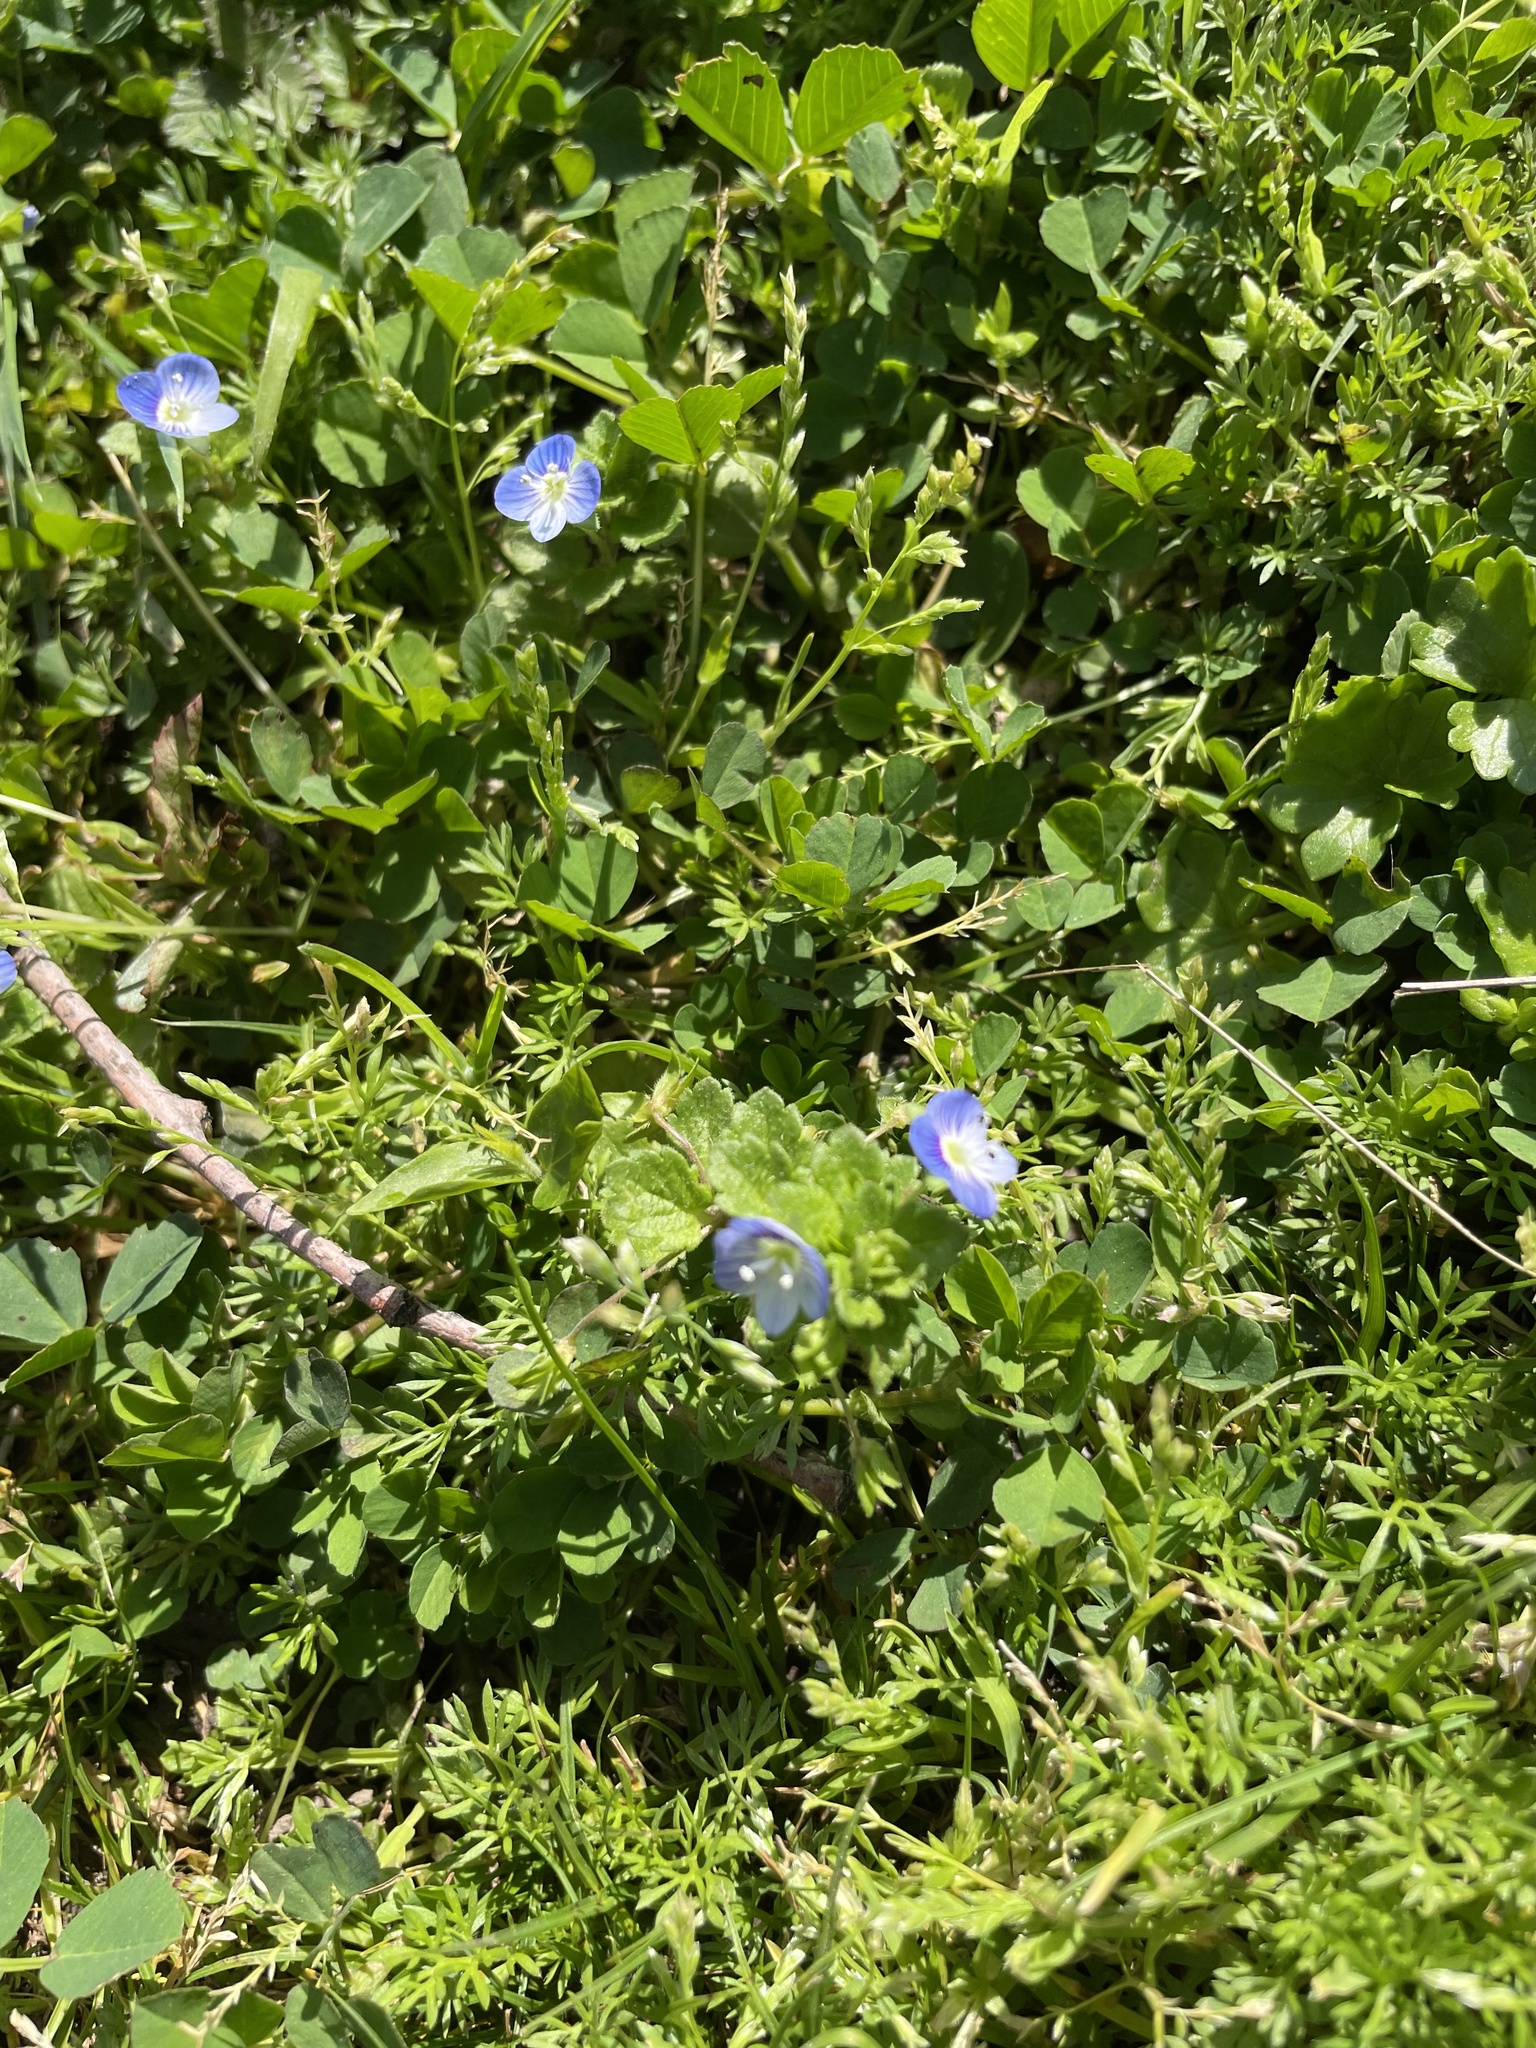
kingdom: Plantae
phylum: Tracheophyta
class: Magnoliopsida
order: Lamiales
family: Plantaginaceae
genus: Veronica
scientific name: Veronica persica
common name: Common field-speedwell
